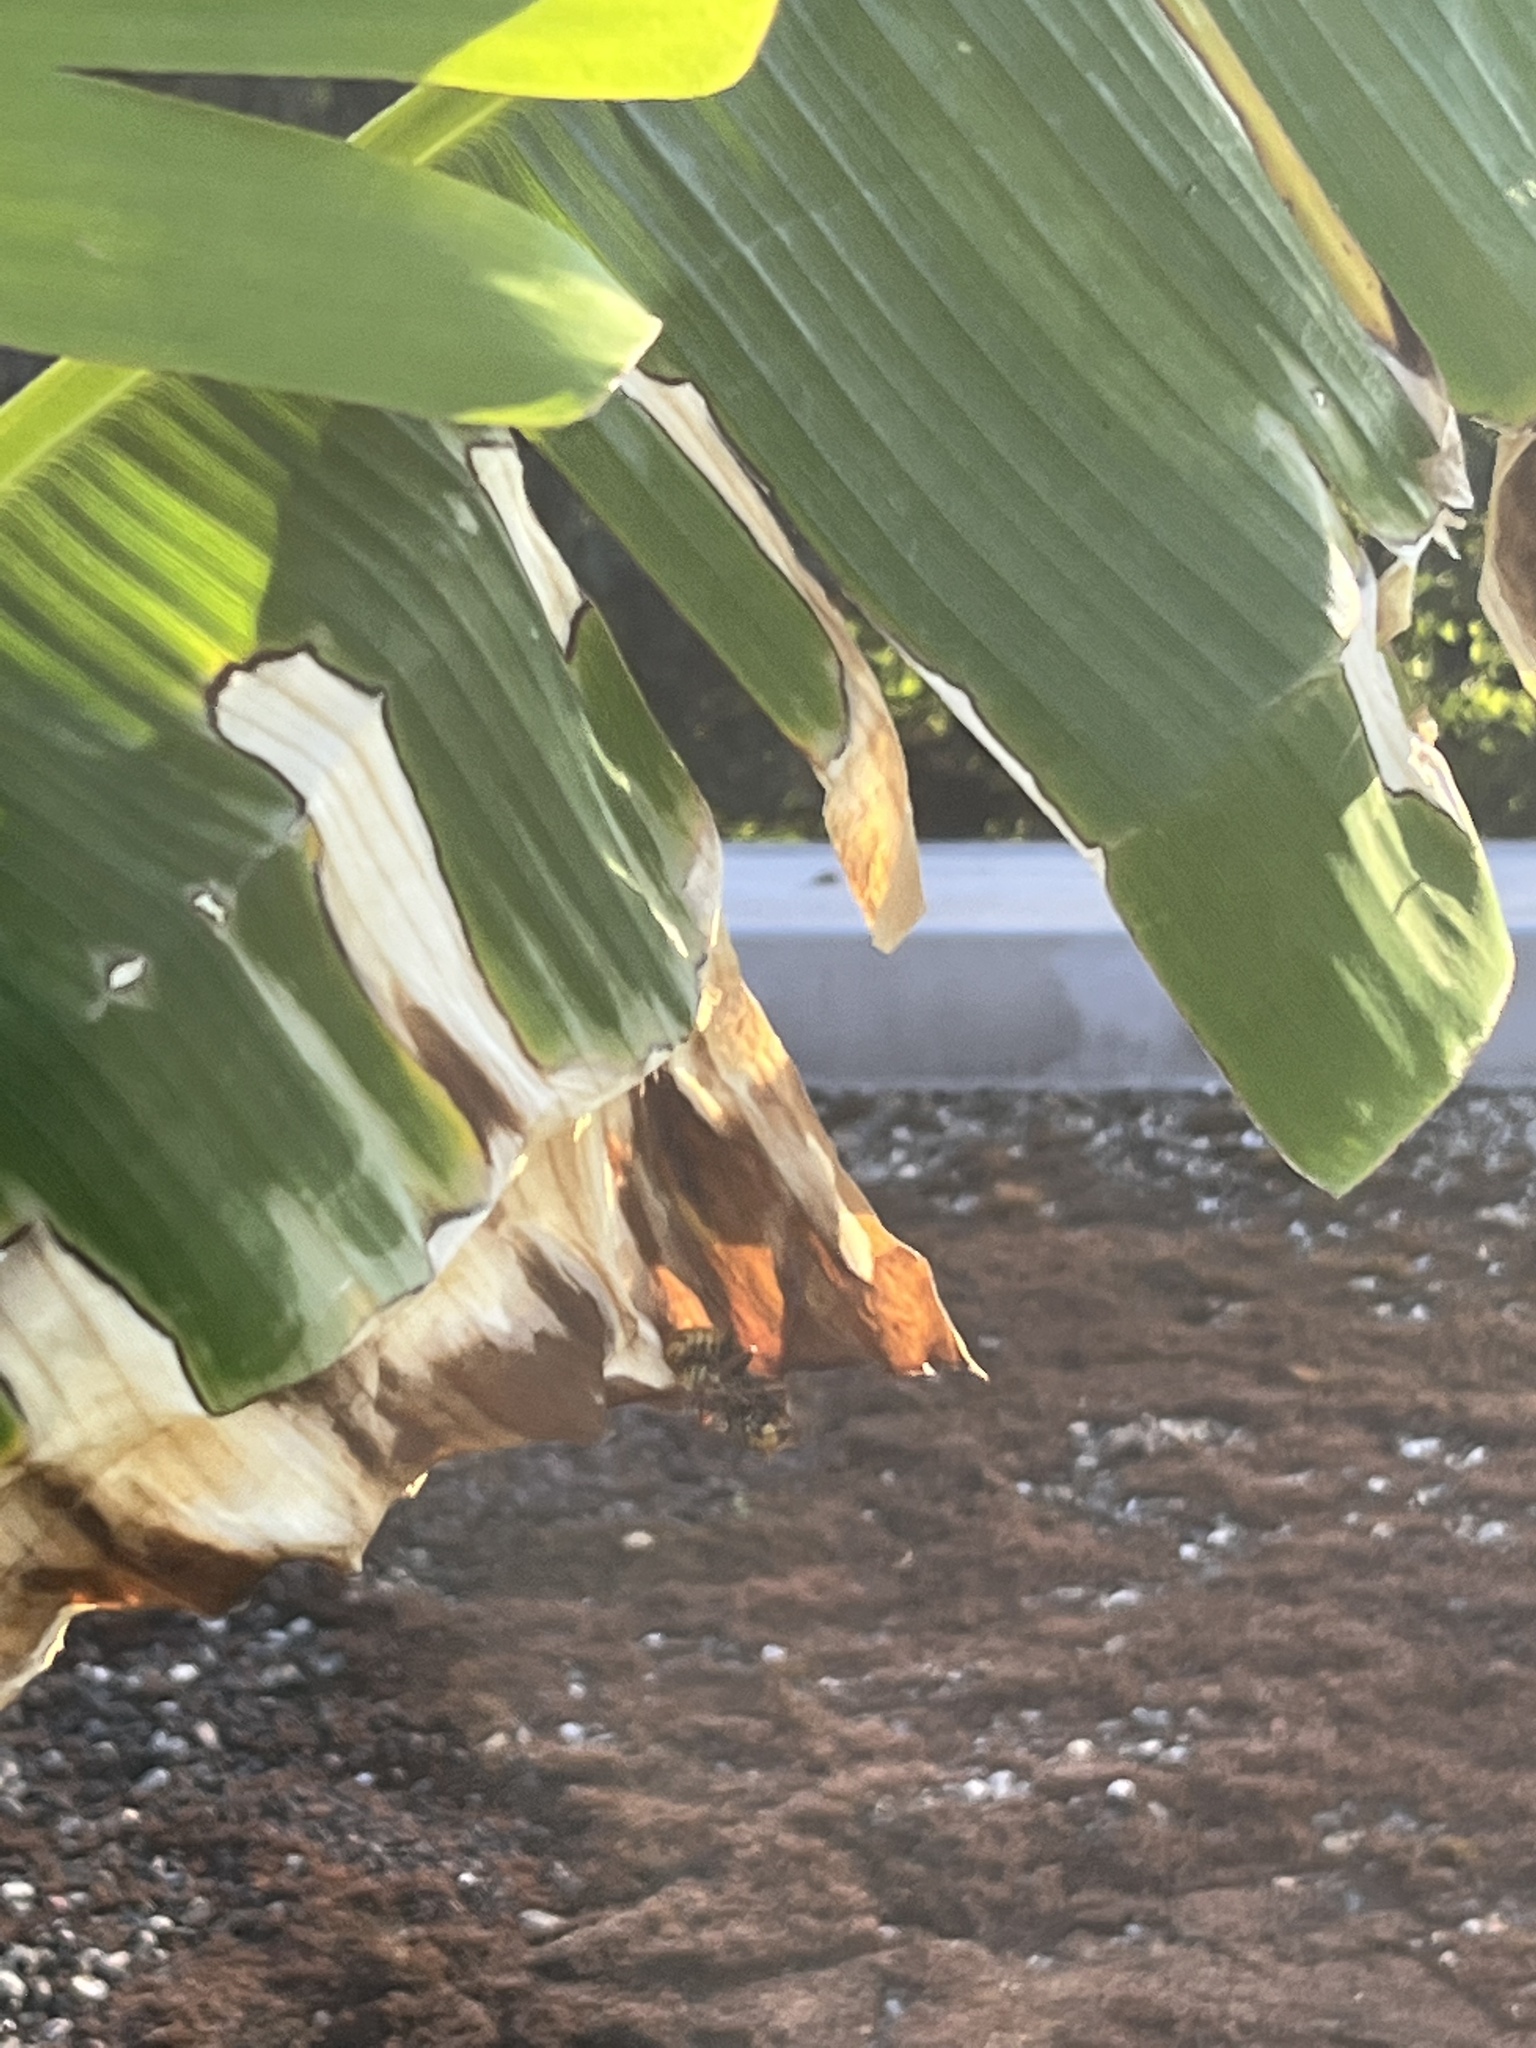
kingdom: Animalia
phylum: Arthropoda
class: Insecta
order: Hymenoptera
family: Vespidae
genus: Vespa
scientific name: Vespa crabro
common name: Hornet
